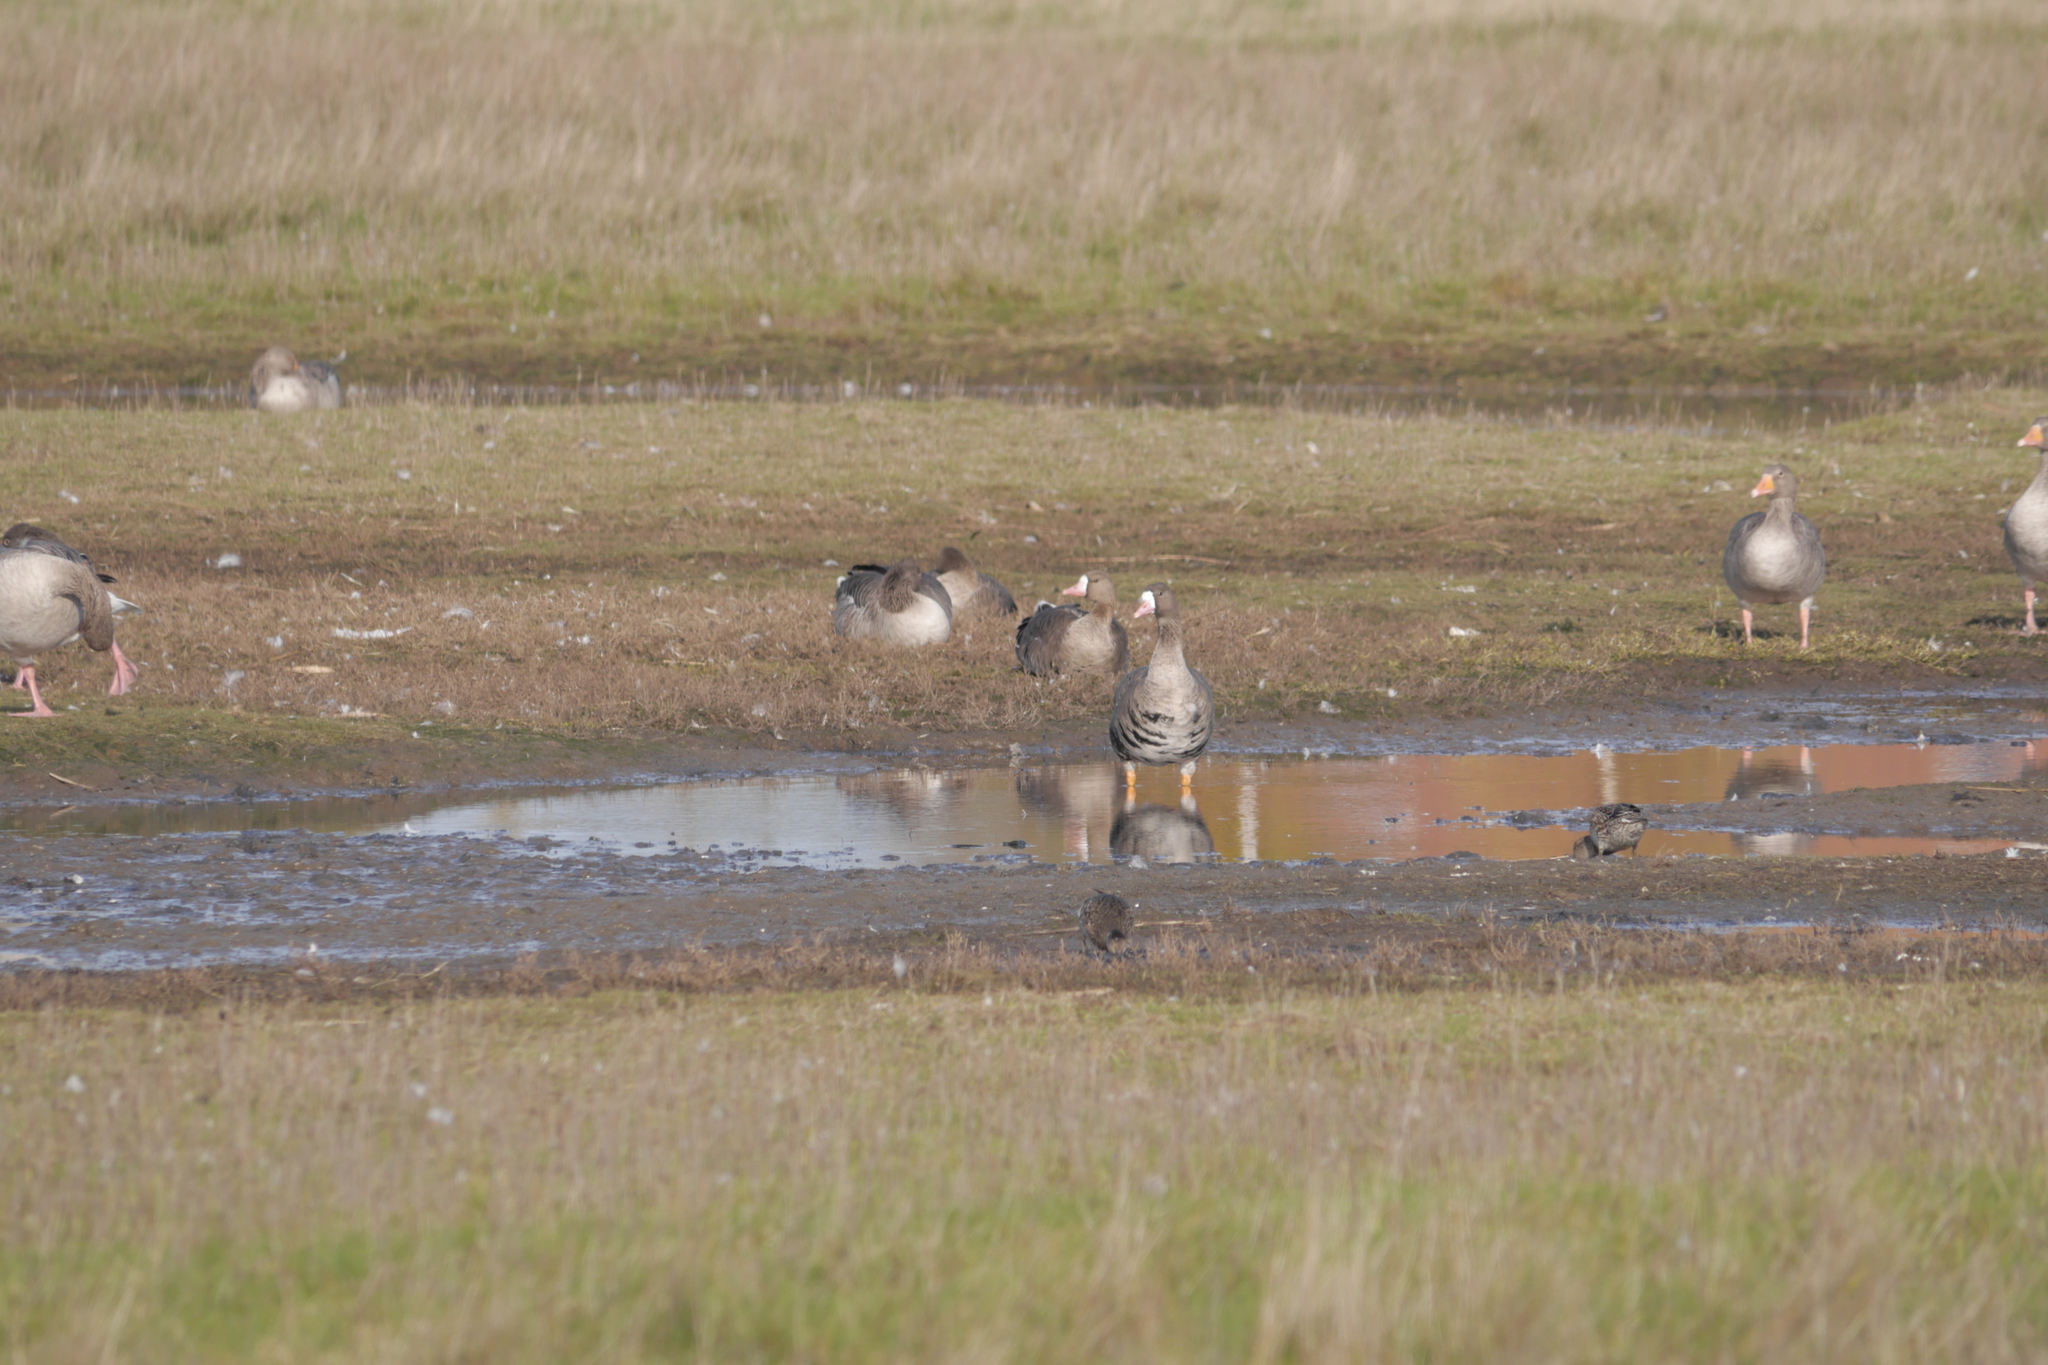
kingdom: Animalia
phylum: Chordata
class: Aves
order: Anseriformes
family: Anatidae
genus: Anser
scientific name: Anser albifrons
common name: Greater white-fronted goose
